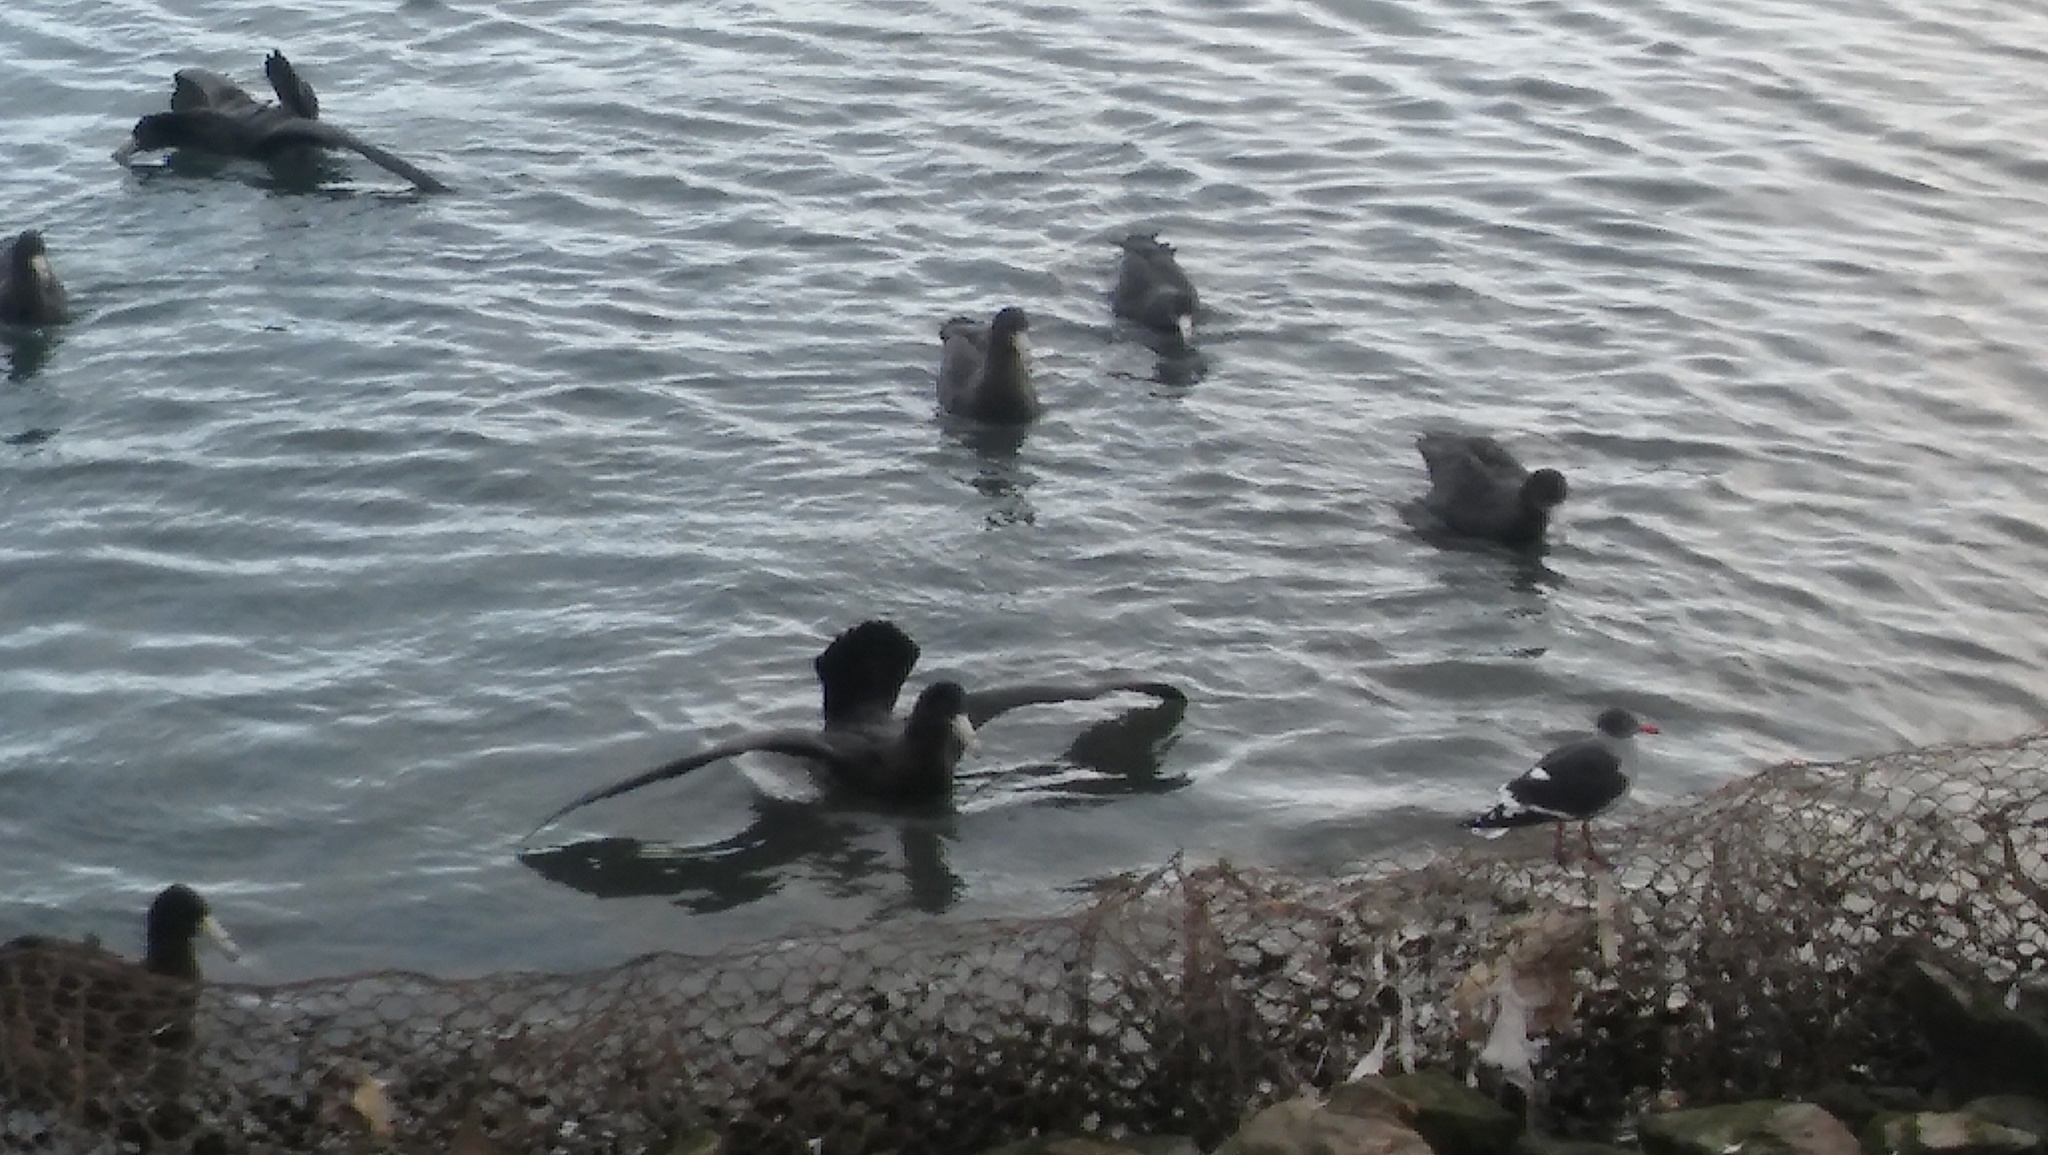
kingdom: Animalia
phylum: Chordata
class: Aves
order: Procellariiformes
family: Procellariidae
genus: Macronectes
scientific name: Macronectes giganteus
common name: Southern giant petrel
